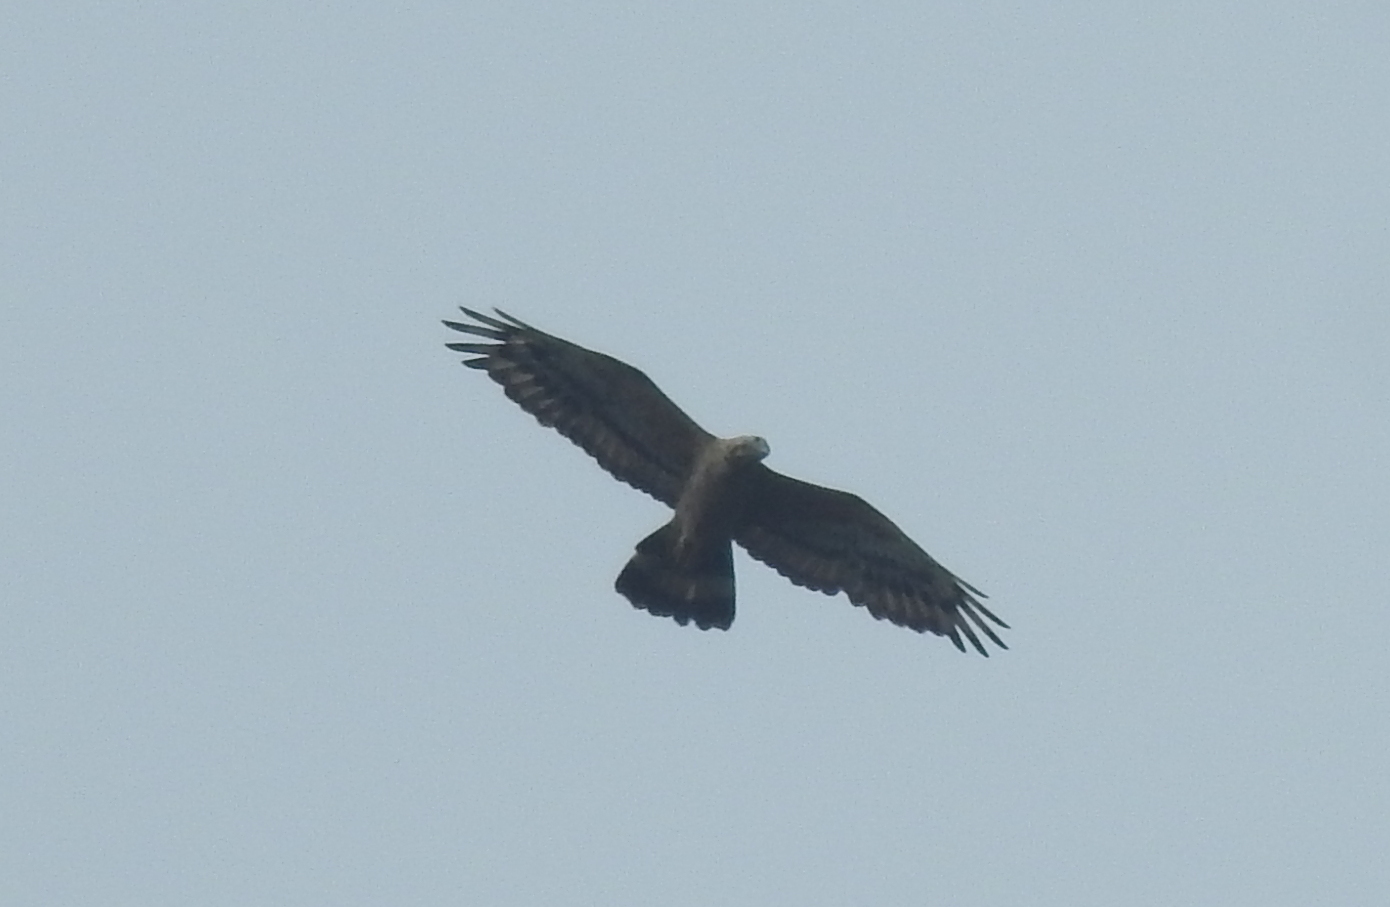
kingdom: Animalia
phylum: Chordata
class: Aves
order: Accipitriformes
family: Accipitridae
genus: Pernis
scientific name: Pernis ptilorhynchus
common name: Crested honey buzzard
